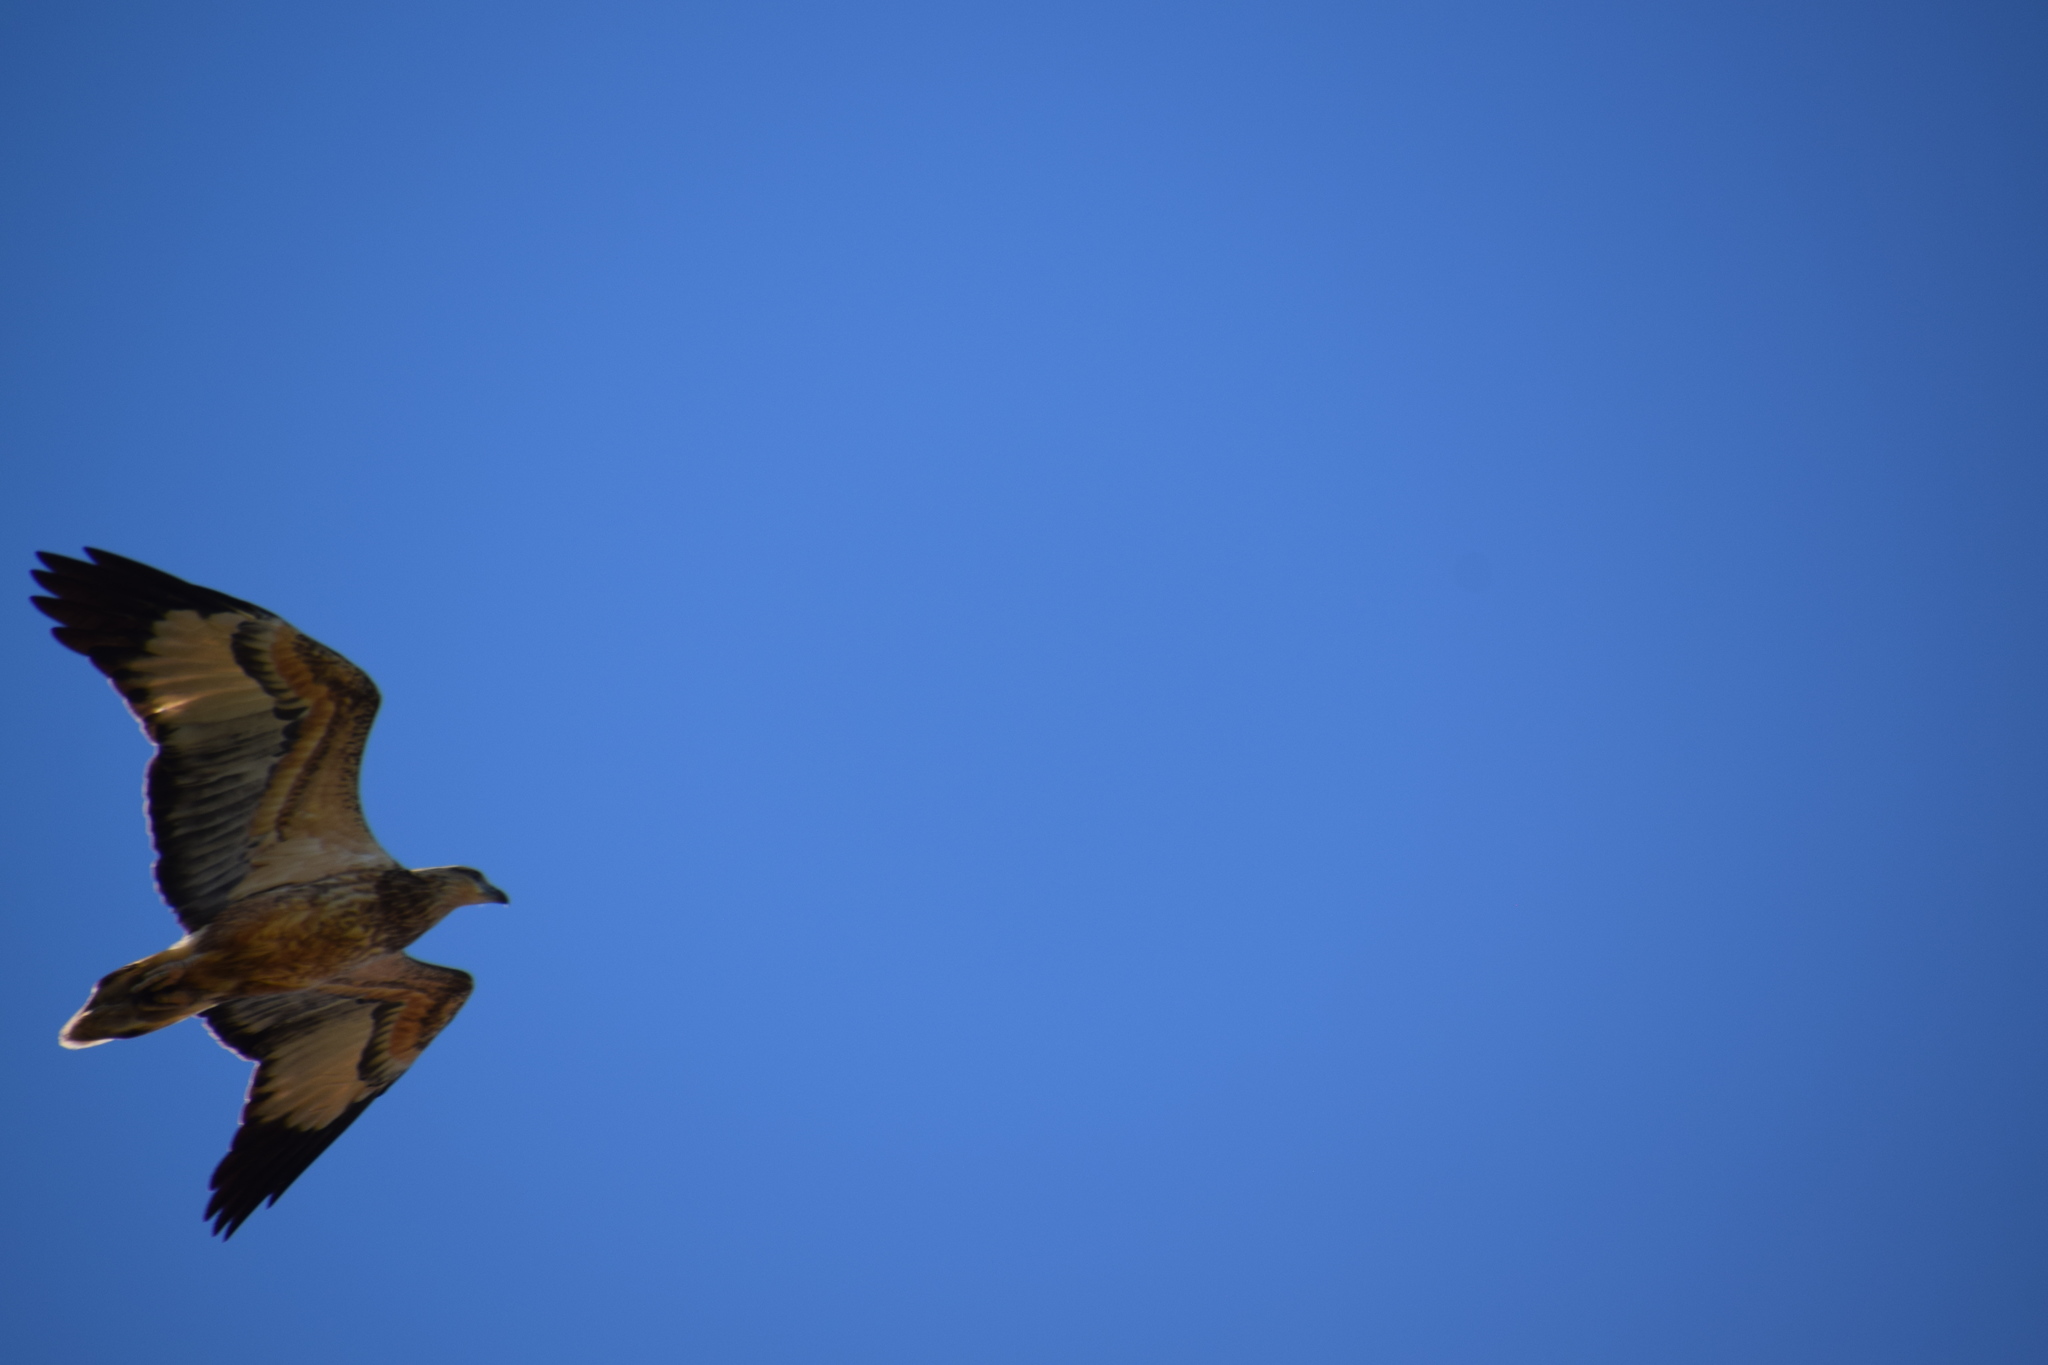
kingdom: Animalia
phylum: Chordata
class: Aves
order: Accipitriformes
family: Accipitridae
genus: Haliaeetus
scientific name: Haliaeetus leucogaster
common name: White-bellied sea eagle
